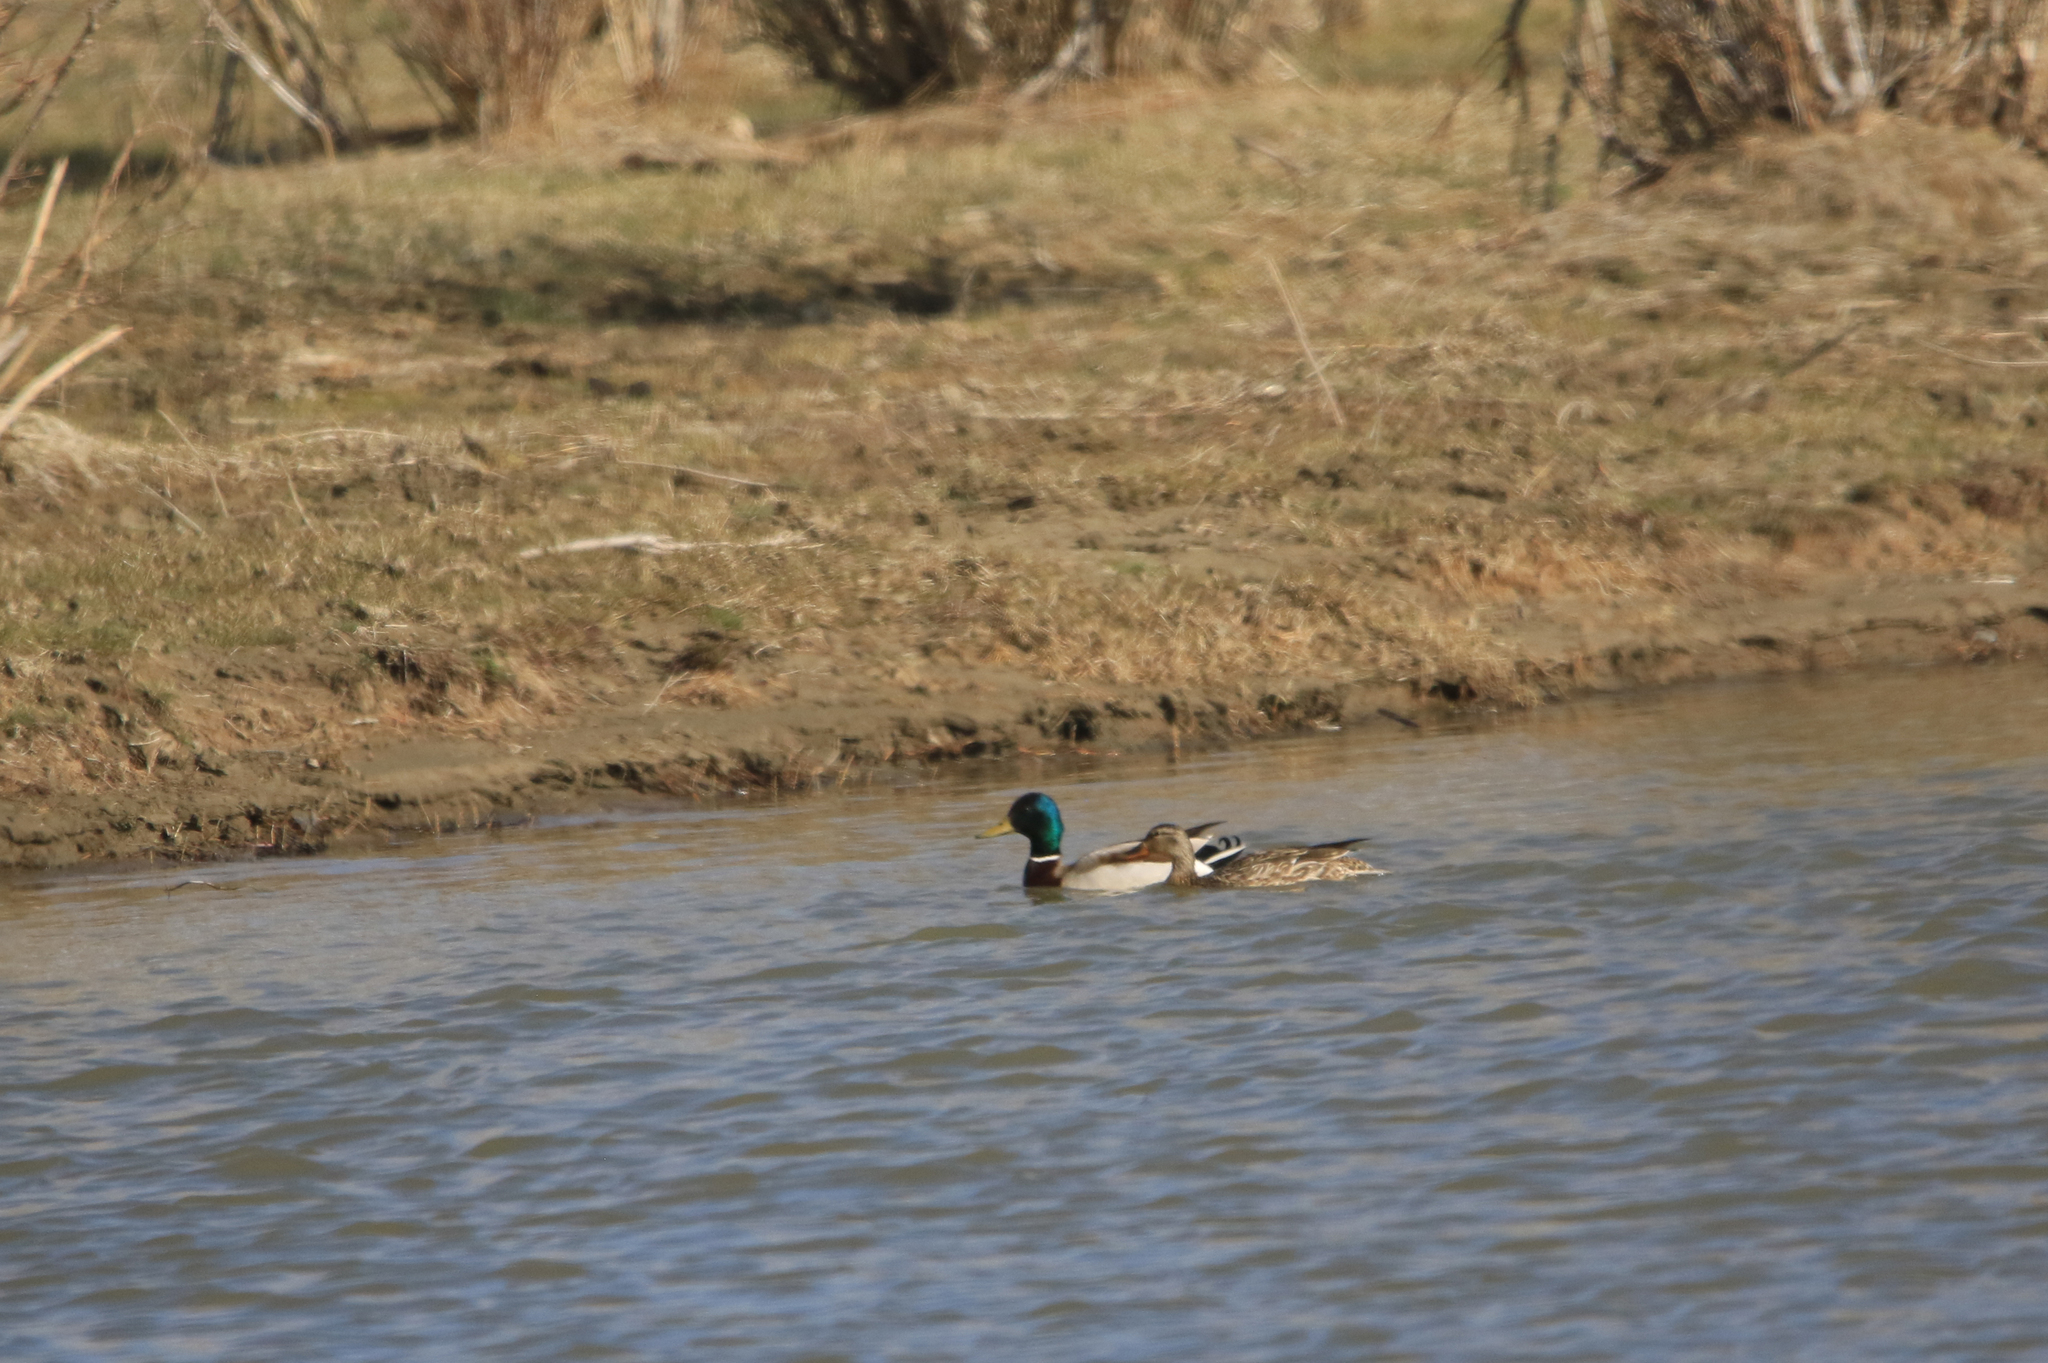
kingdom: Animalia
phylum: Chordata
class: Aves
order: Anseriformes
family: Anatidae
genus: Anas
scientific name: Anas platyrhynchos
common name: Mallard
